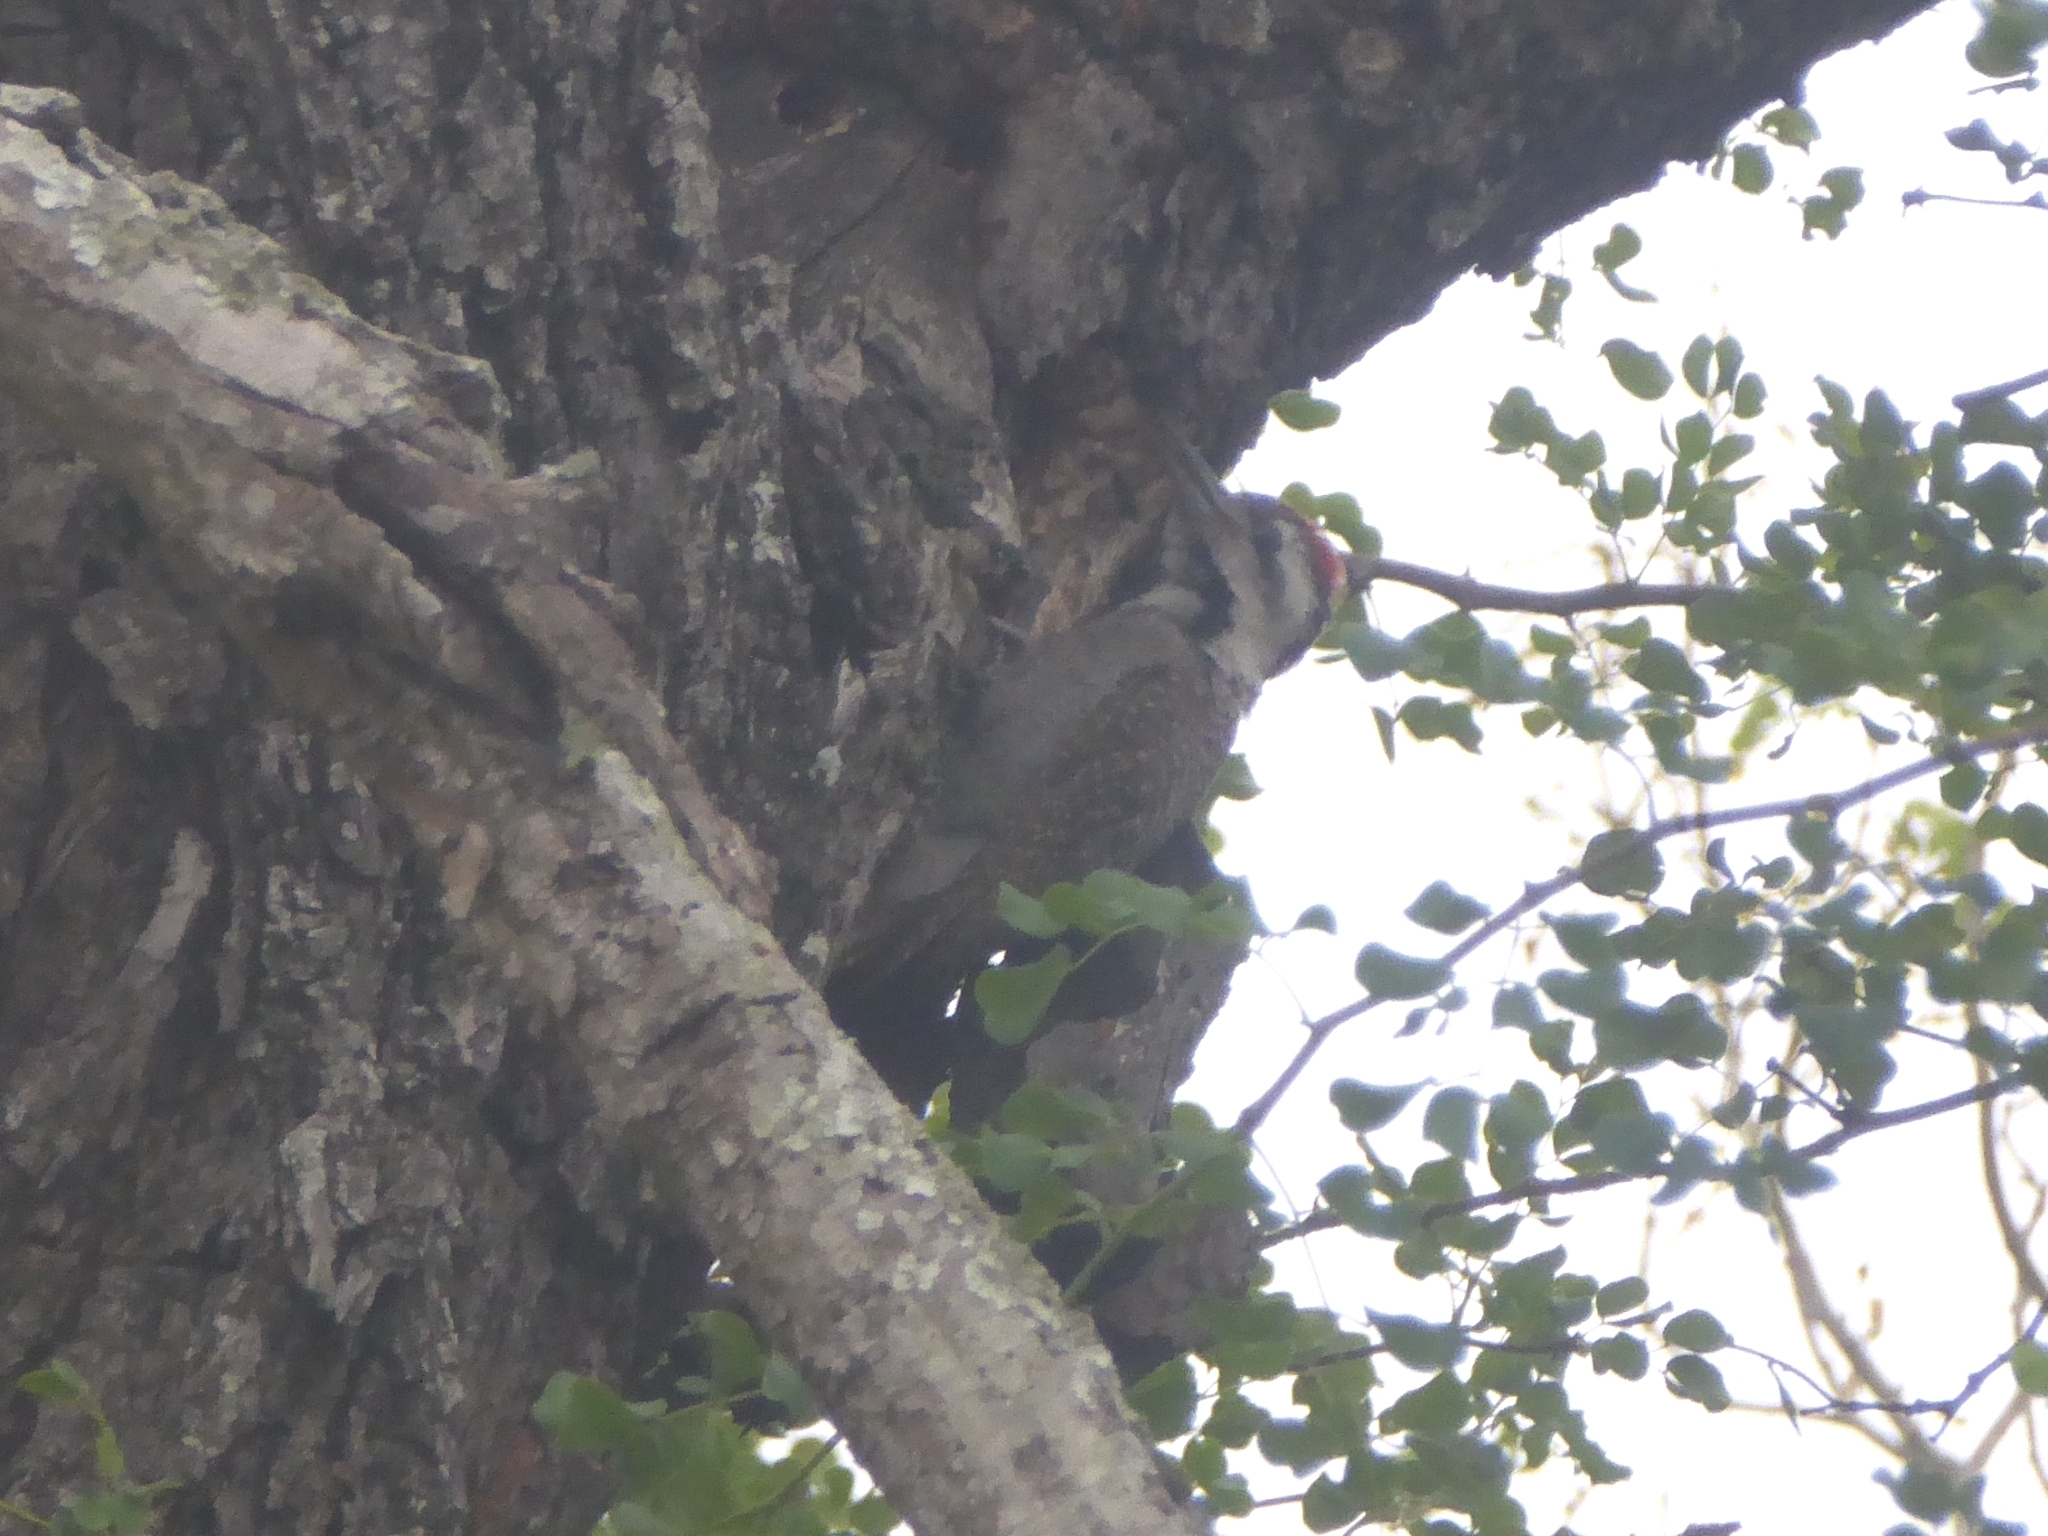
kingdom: Animalia
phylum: Chordata
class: Aves
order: Piciformes
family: Picidae
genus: Chloropicus
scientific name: Chloropicus namaquus
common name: Bearded woodpecker
